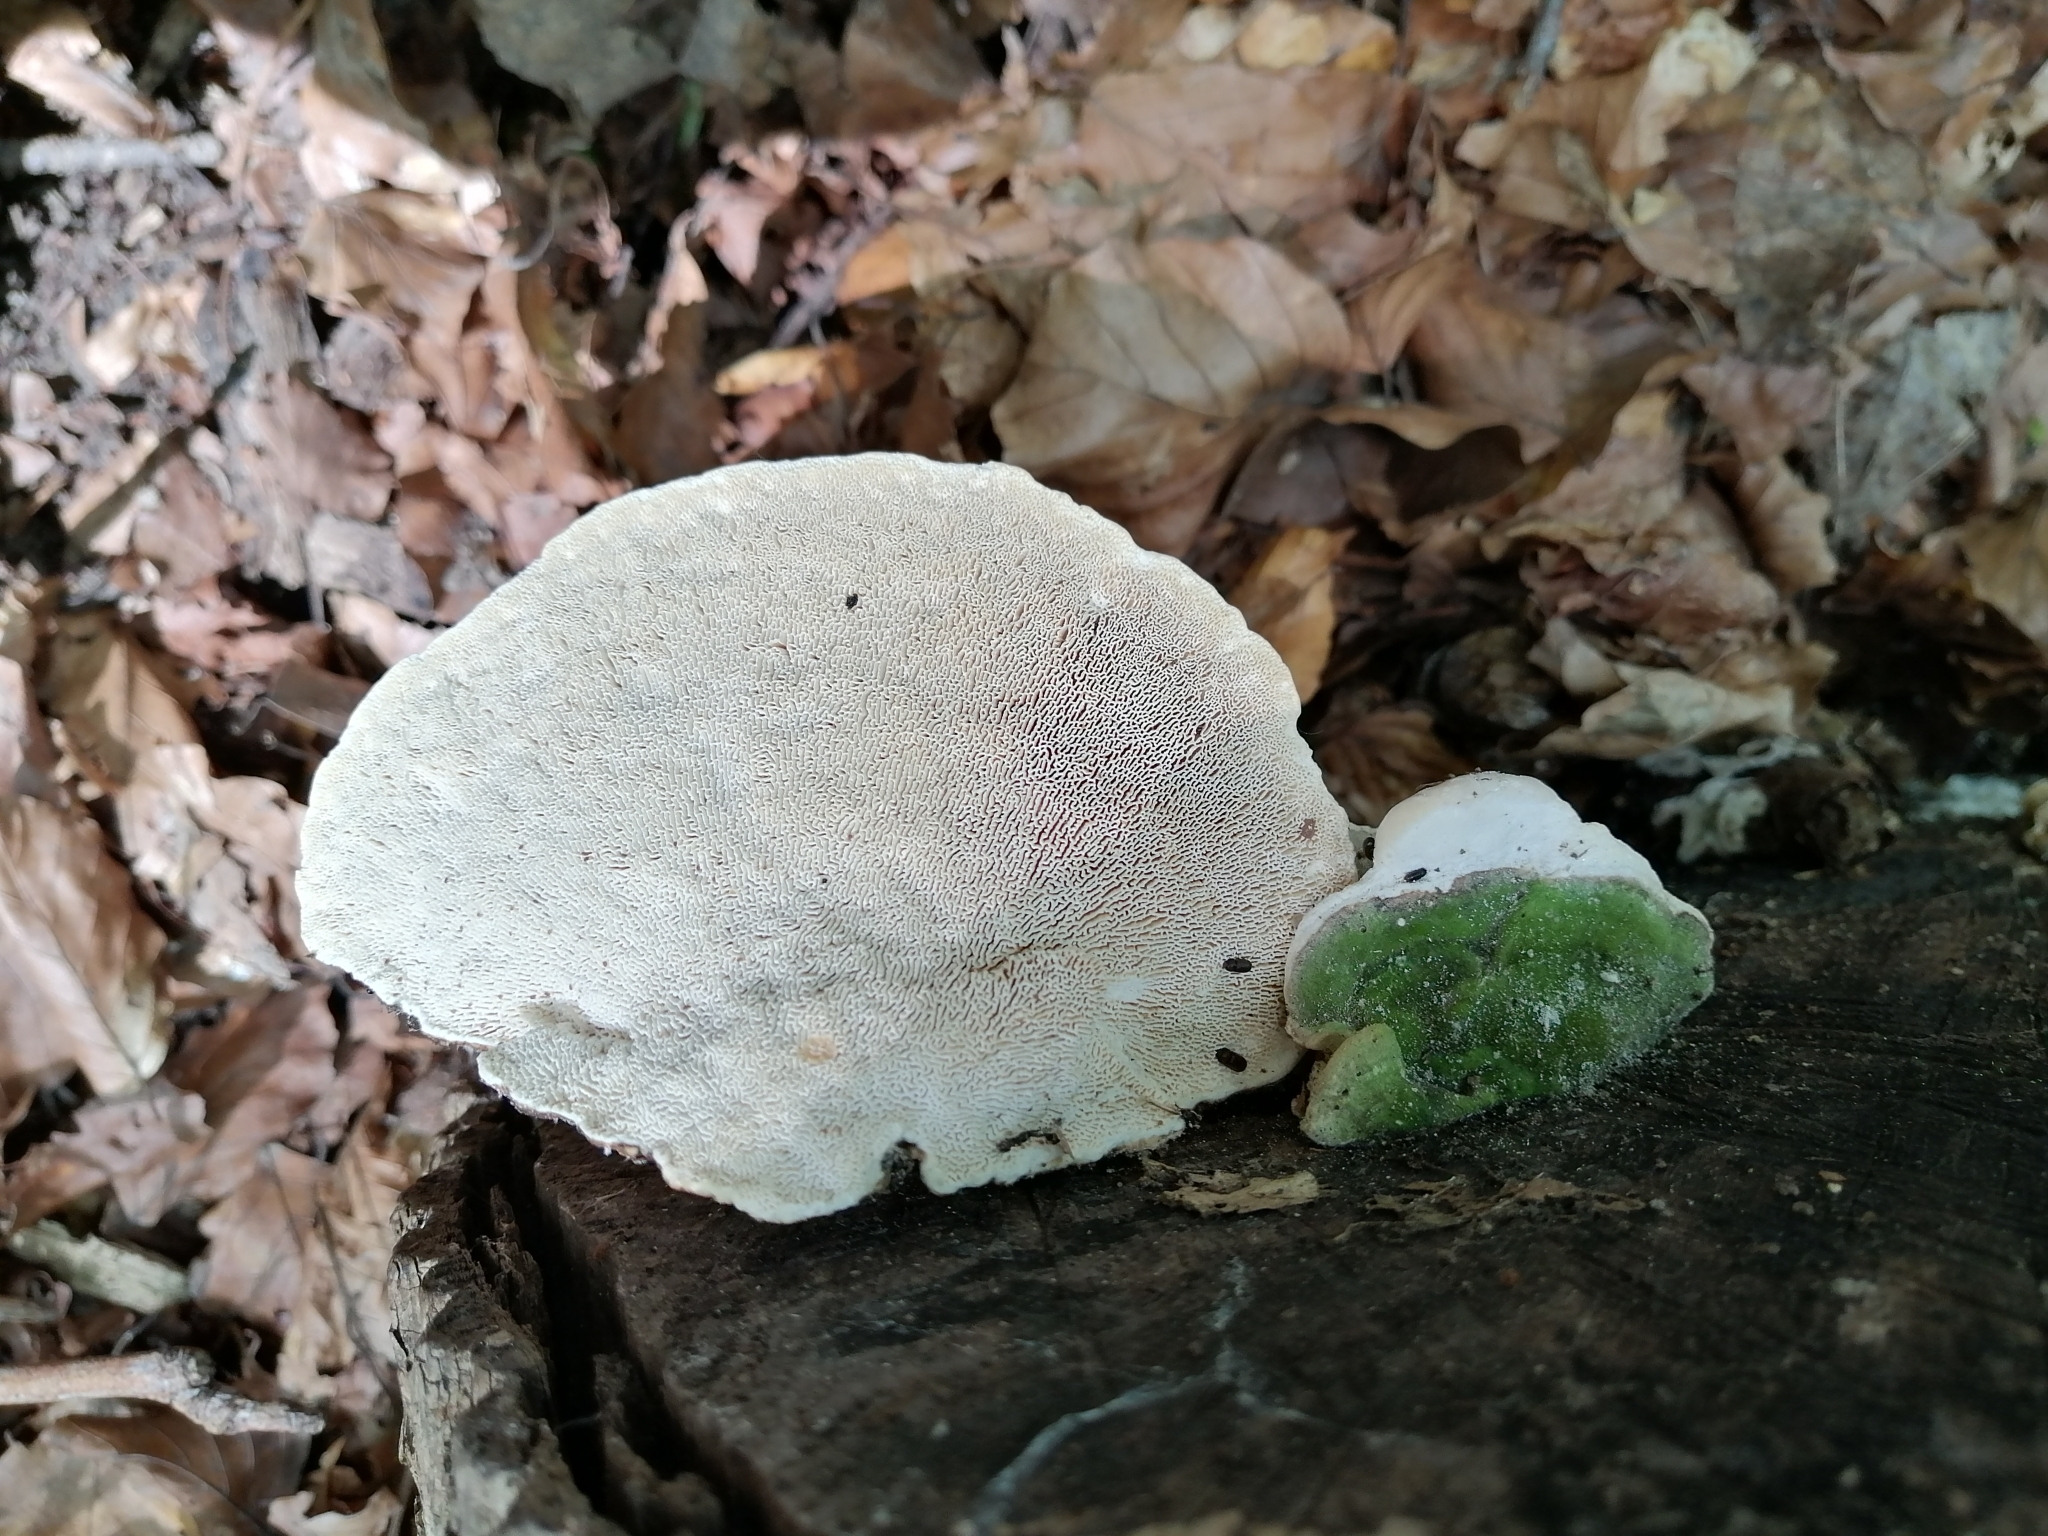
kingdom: Fungi
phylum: Basidiomycota
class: Agaricomycetes
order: Polyporales
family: Polyporaceae
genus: Trametes
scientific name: Trametes gibbosa
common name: Lumpy bracket
